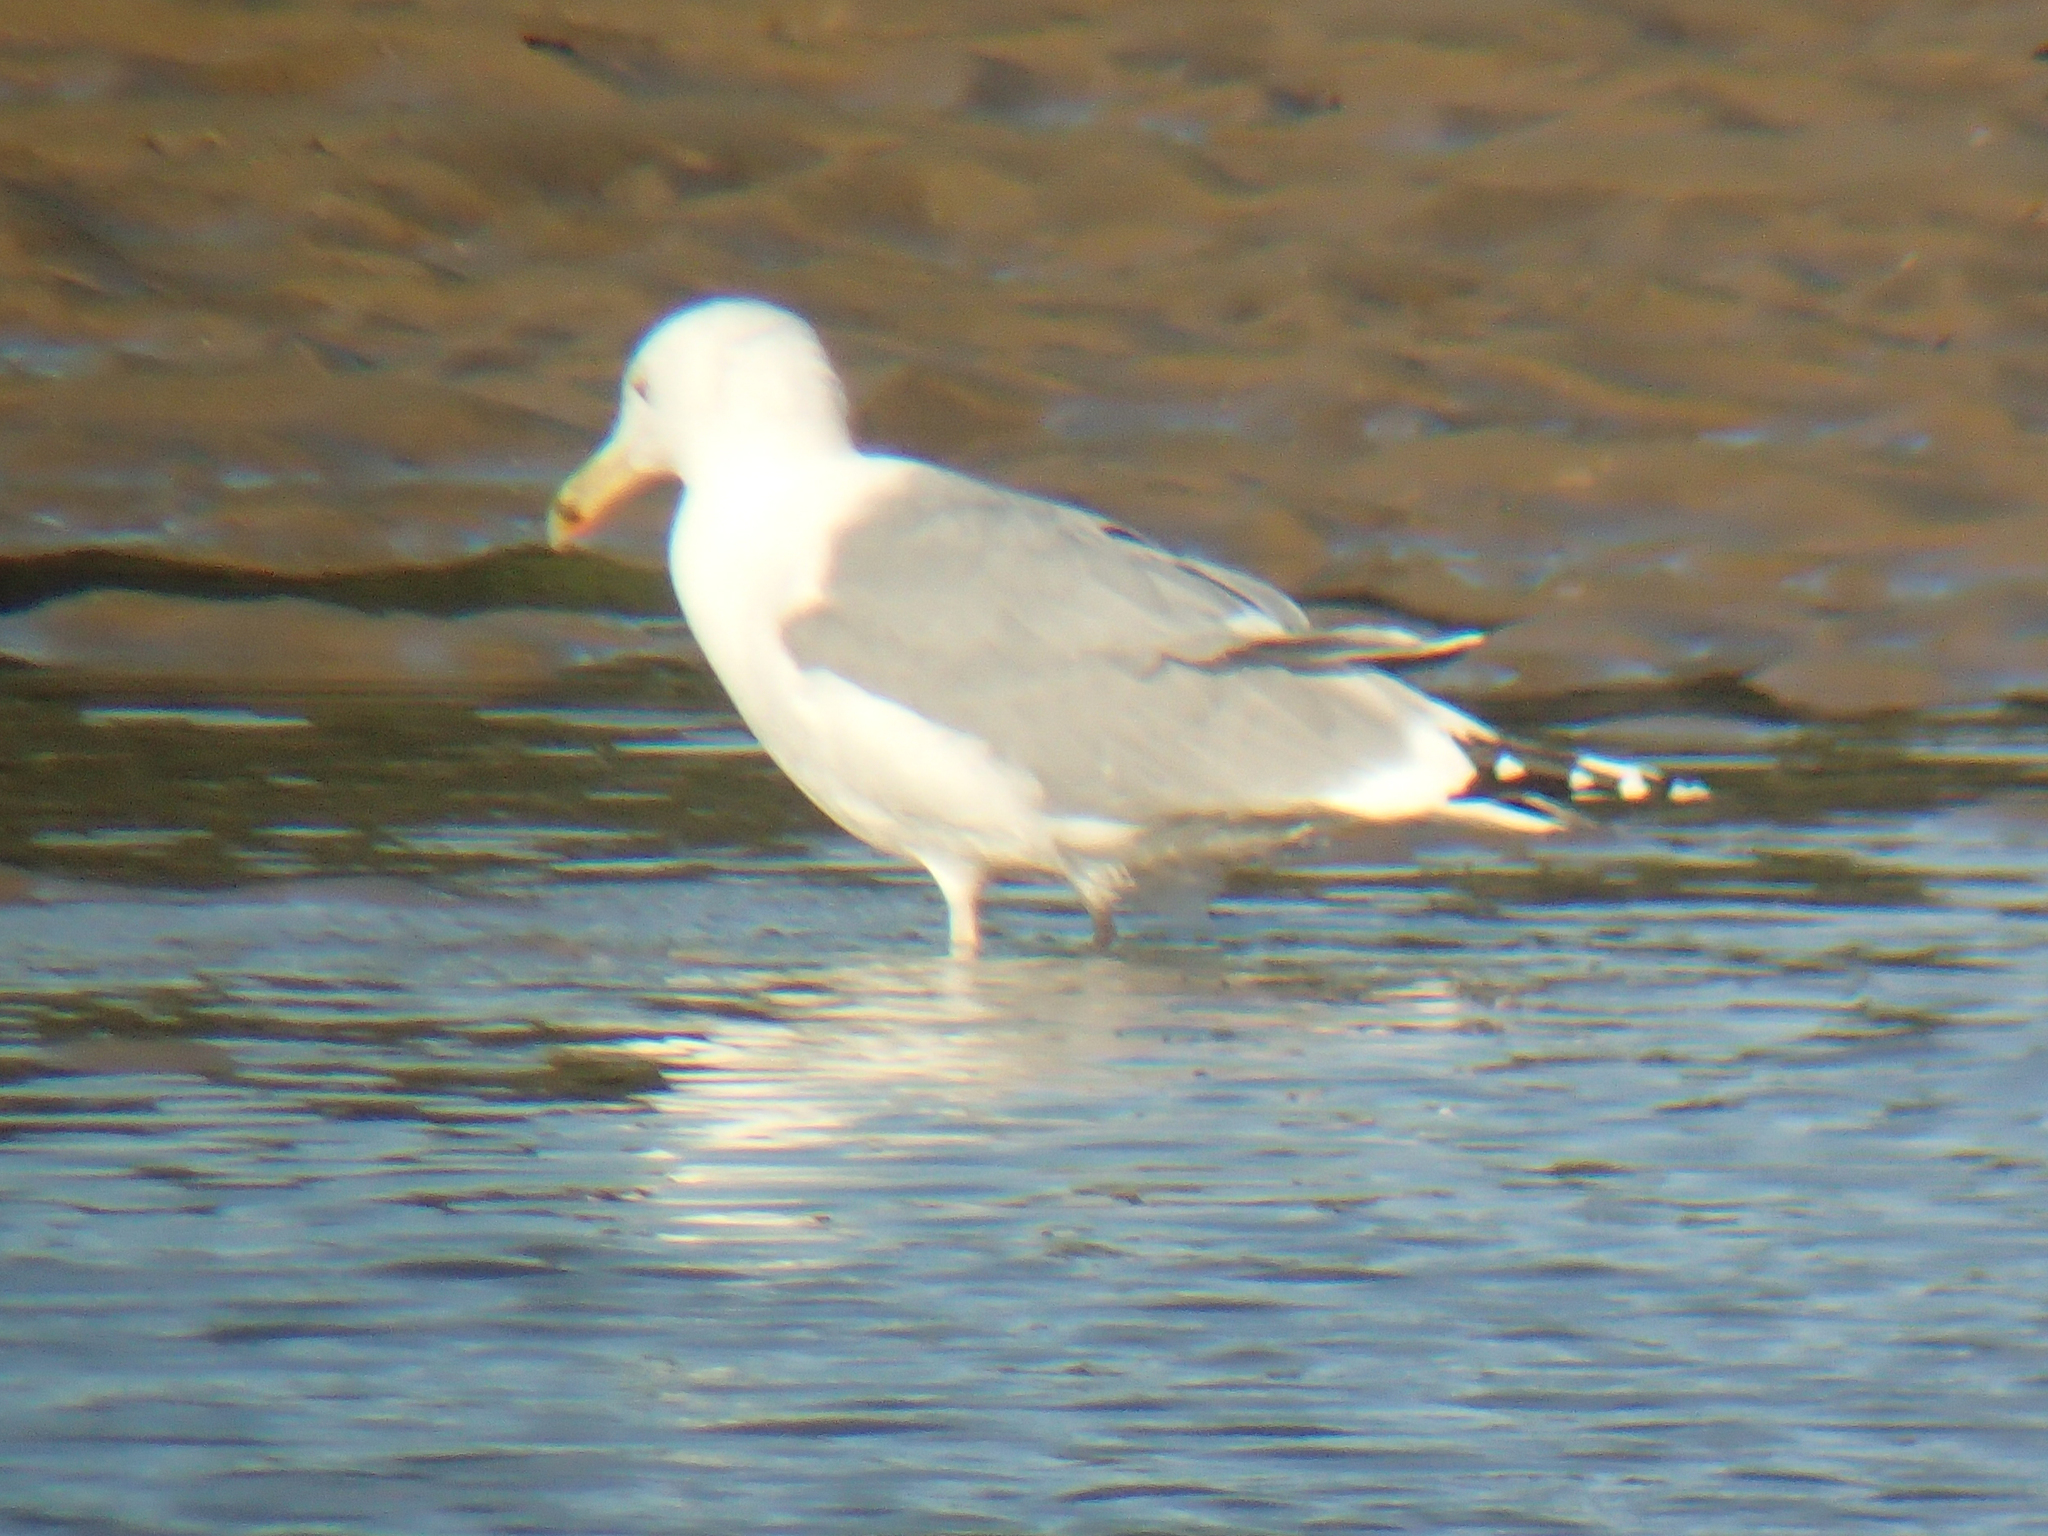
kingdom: Animalia
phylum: Chordata
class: Aves
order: Charadriiformes
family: Laridae
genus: Larus
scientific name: Larus cachinnans
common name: Caspian gull
